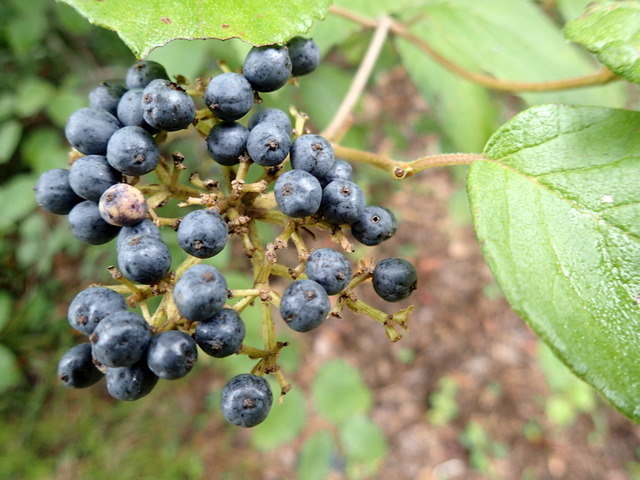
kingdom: Plantae
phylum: Tracheophyta
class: Magnoliopsida
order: Dipsacales
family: Viburnaceae
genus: Viburnum
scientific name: Viburnum scabrellum
